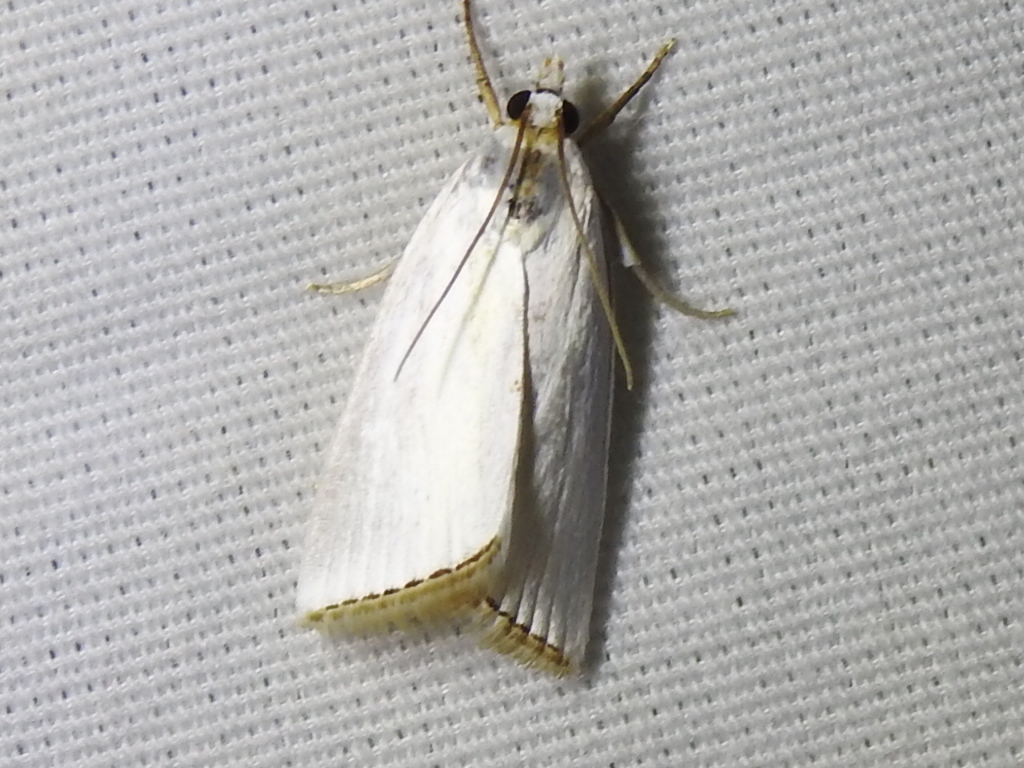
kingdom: Animalia
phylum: Arthropoda
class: Insecta
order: Lepidoptera
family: Crambidae
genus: Argyria
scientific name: Argyria nivalis
